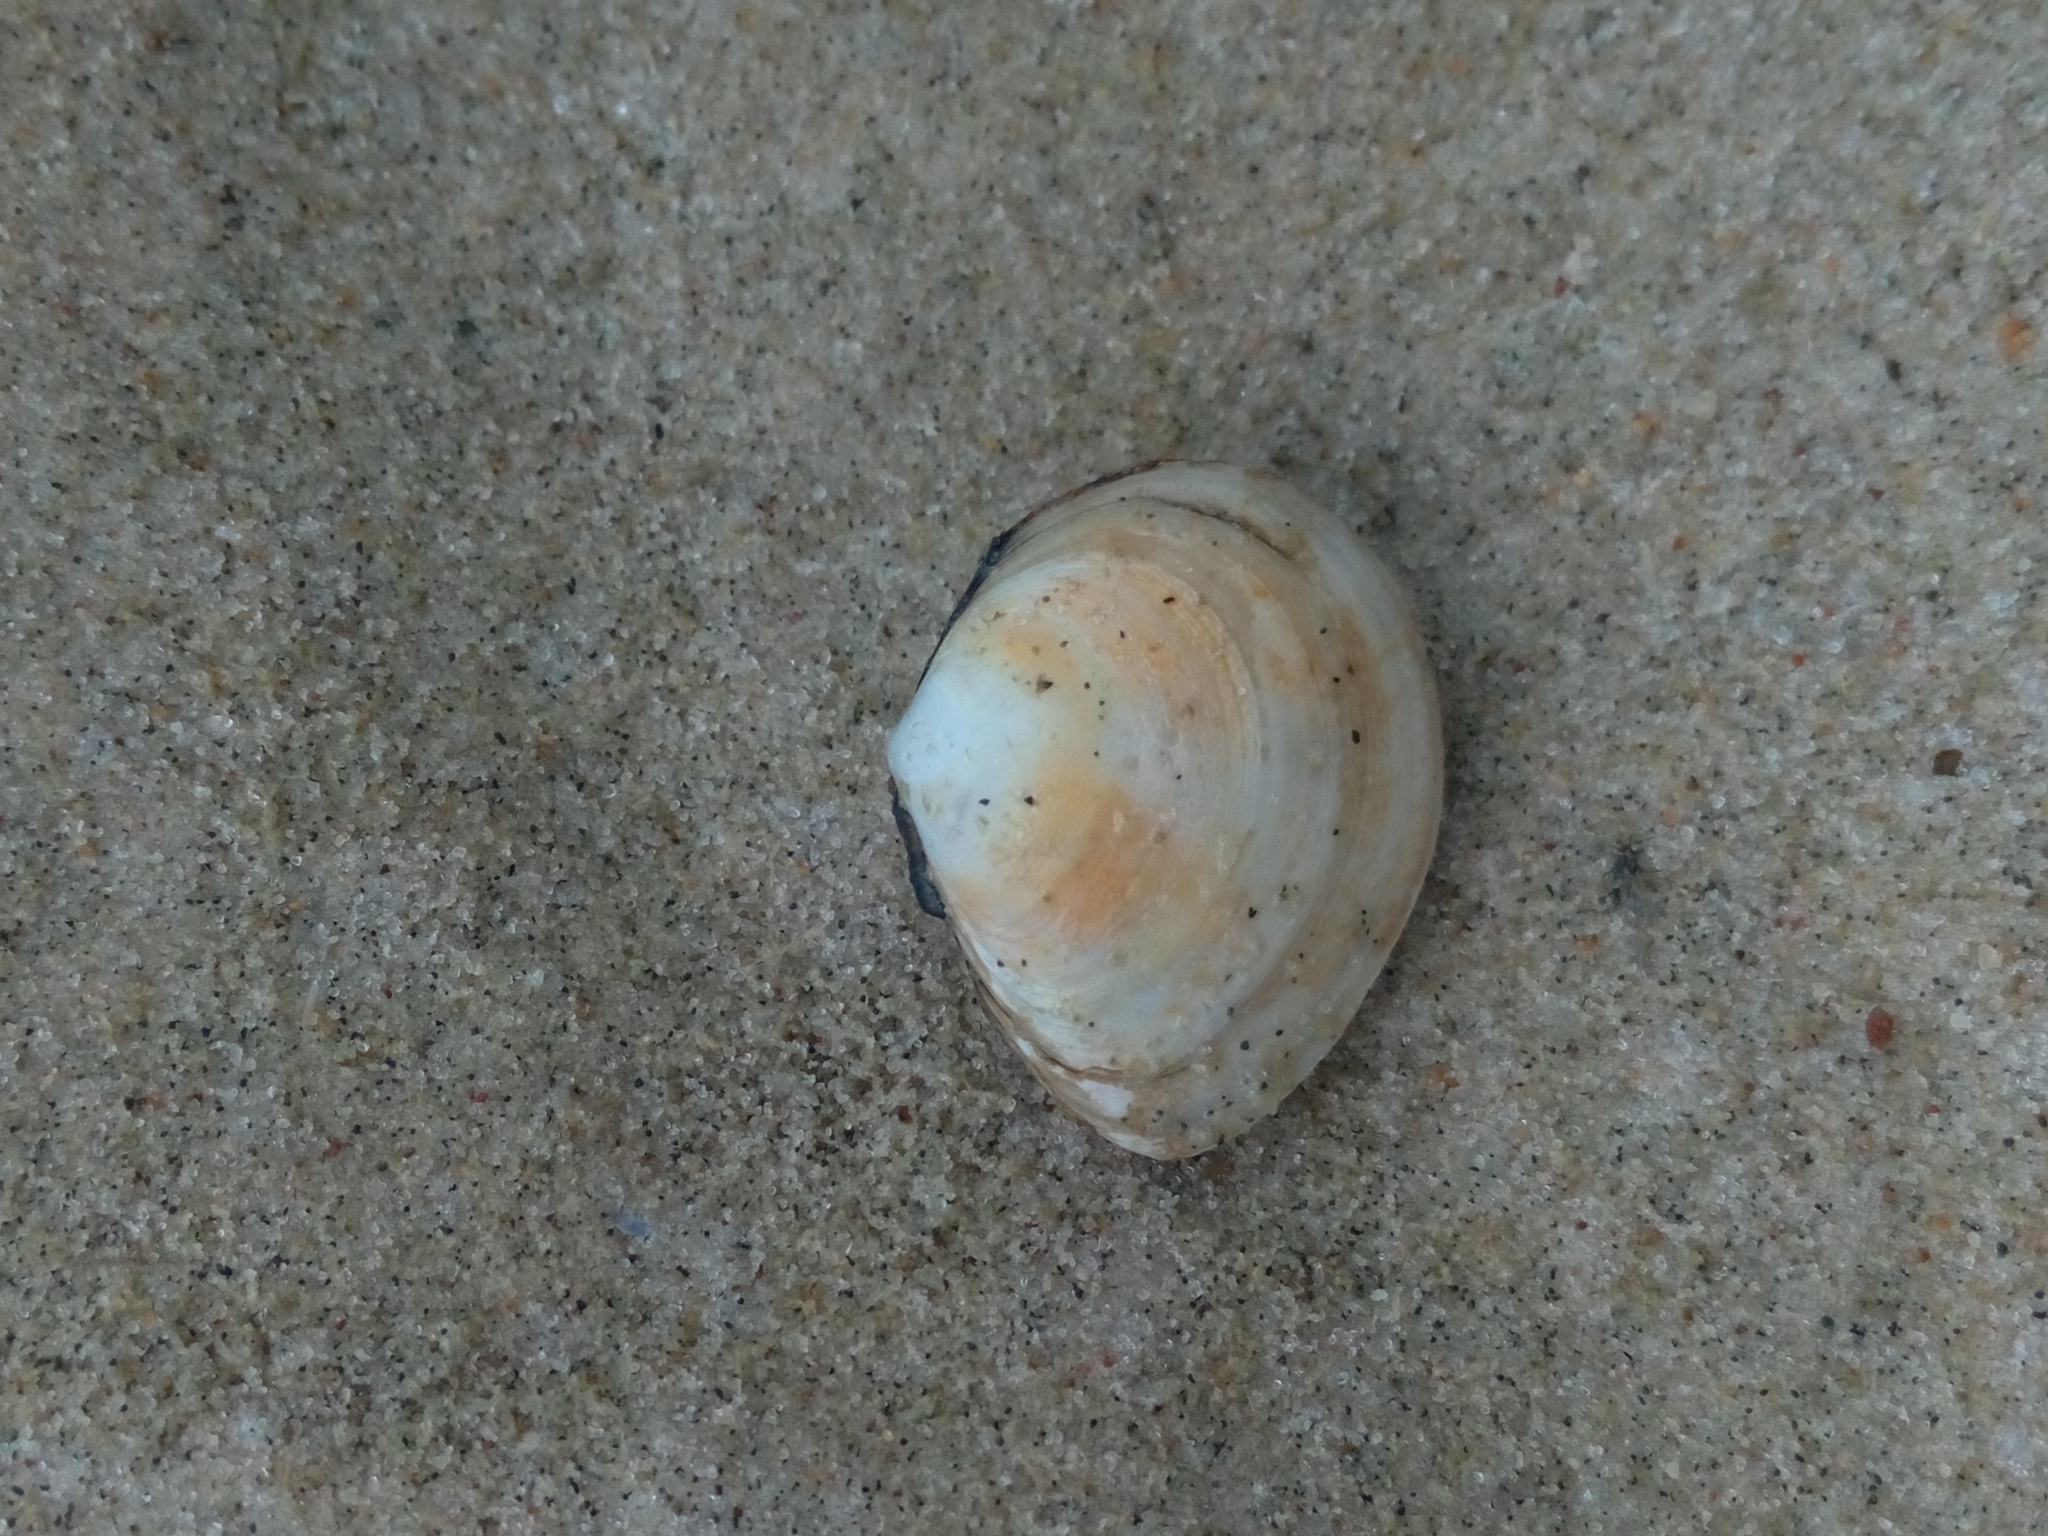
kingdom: Animalia
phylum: Mollusca
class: Bivalvia
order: Cardiida
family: Tellinidae
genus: Macoma
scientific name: Macoma balthica
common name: Baltic tellin
